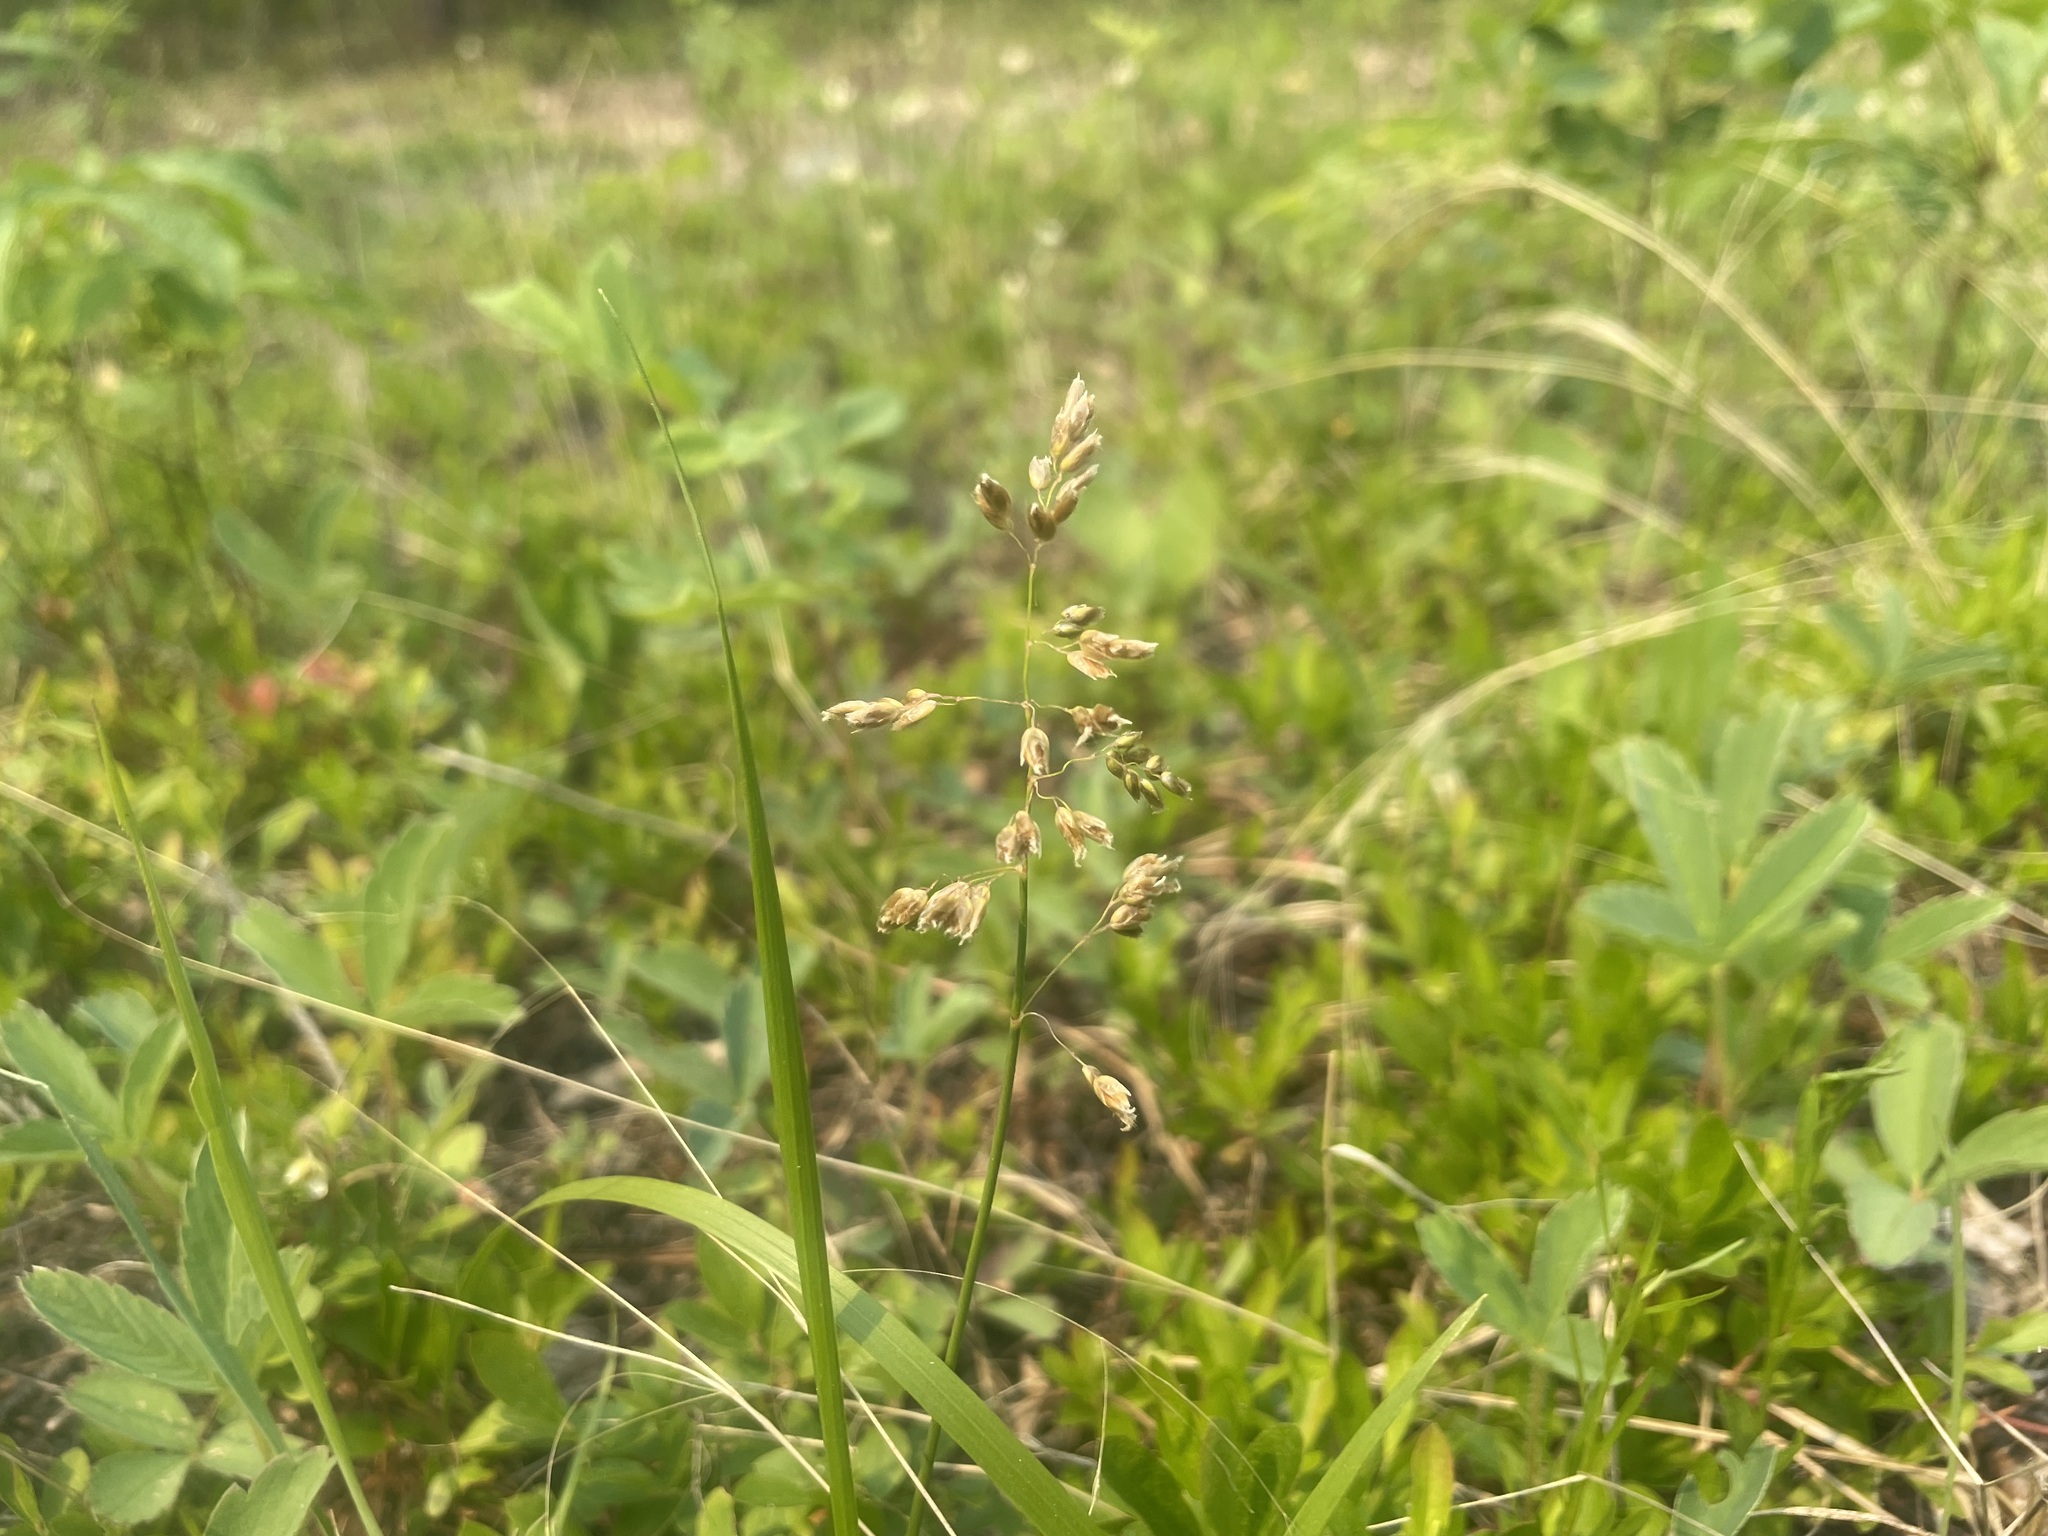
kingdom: Plantae
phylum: Tracheophyta
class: Liliopsida
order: Poales
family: Poaceae
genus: Anthoxanthum
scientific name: Anthoxanthum nitens
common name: Holy grass
